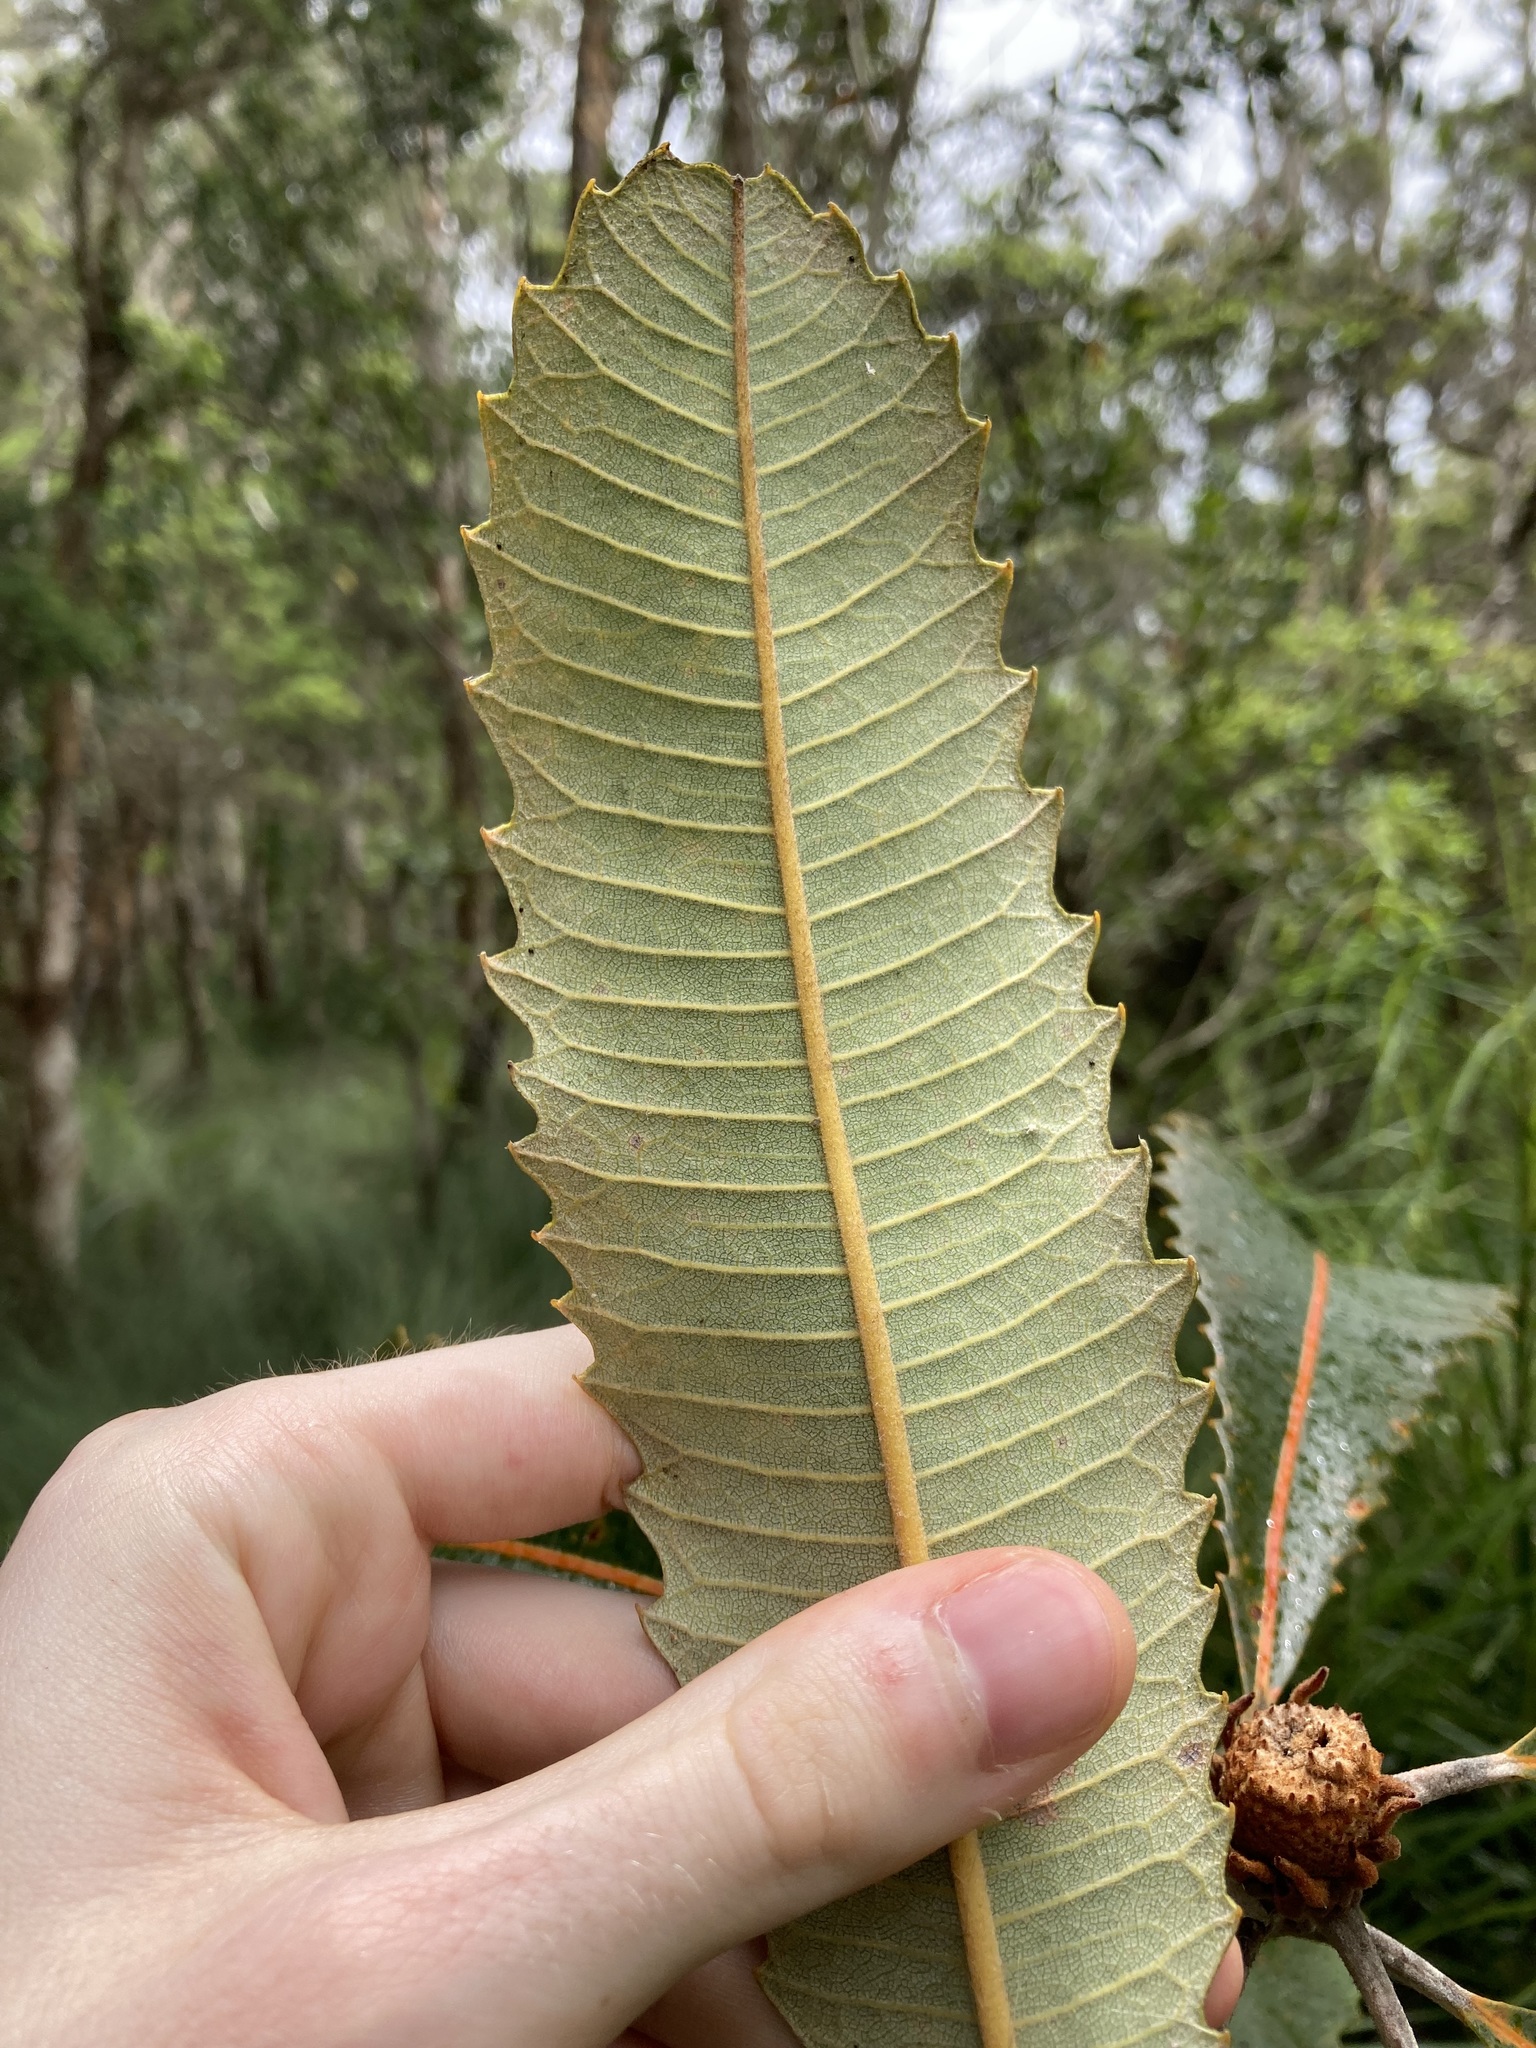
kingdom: Plantae
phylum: Tracheophyta
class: Magnoliopsida
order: Proteales
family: Proteaceae
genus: Banksia
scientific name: Banksia robur
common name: Broadleaf banksia
